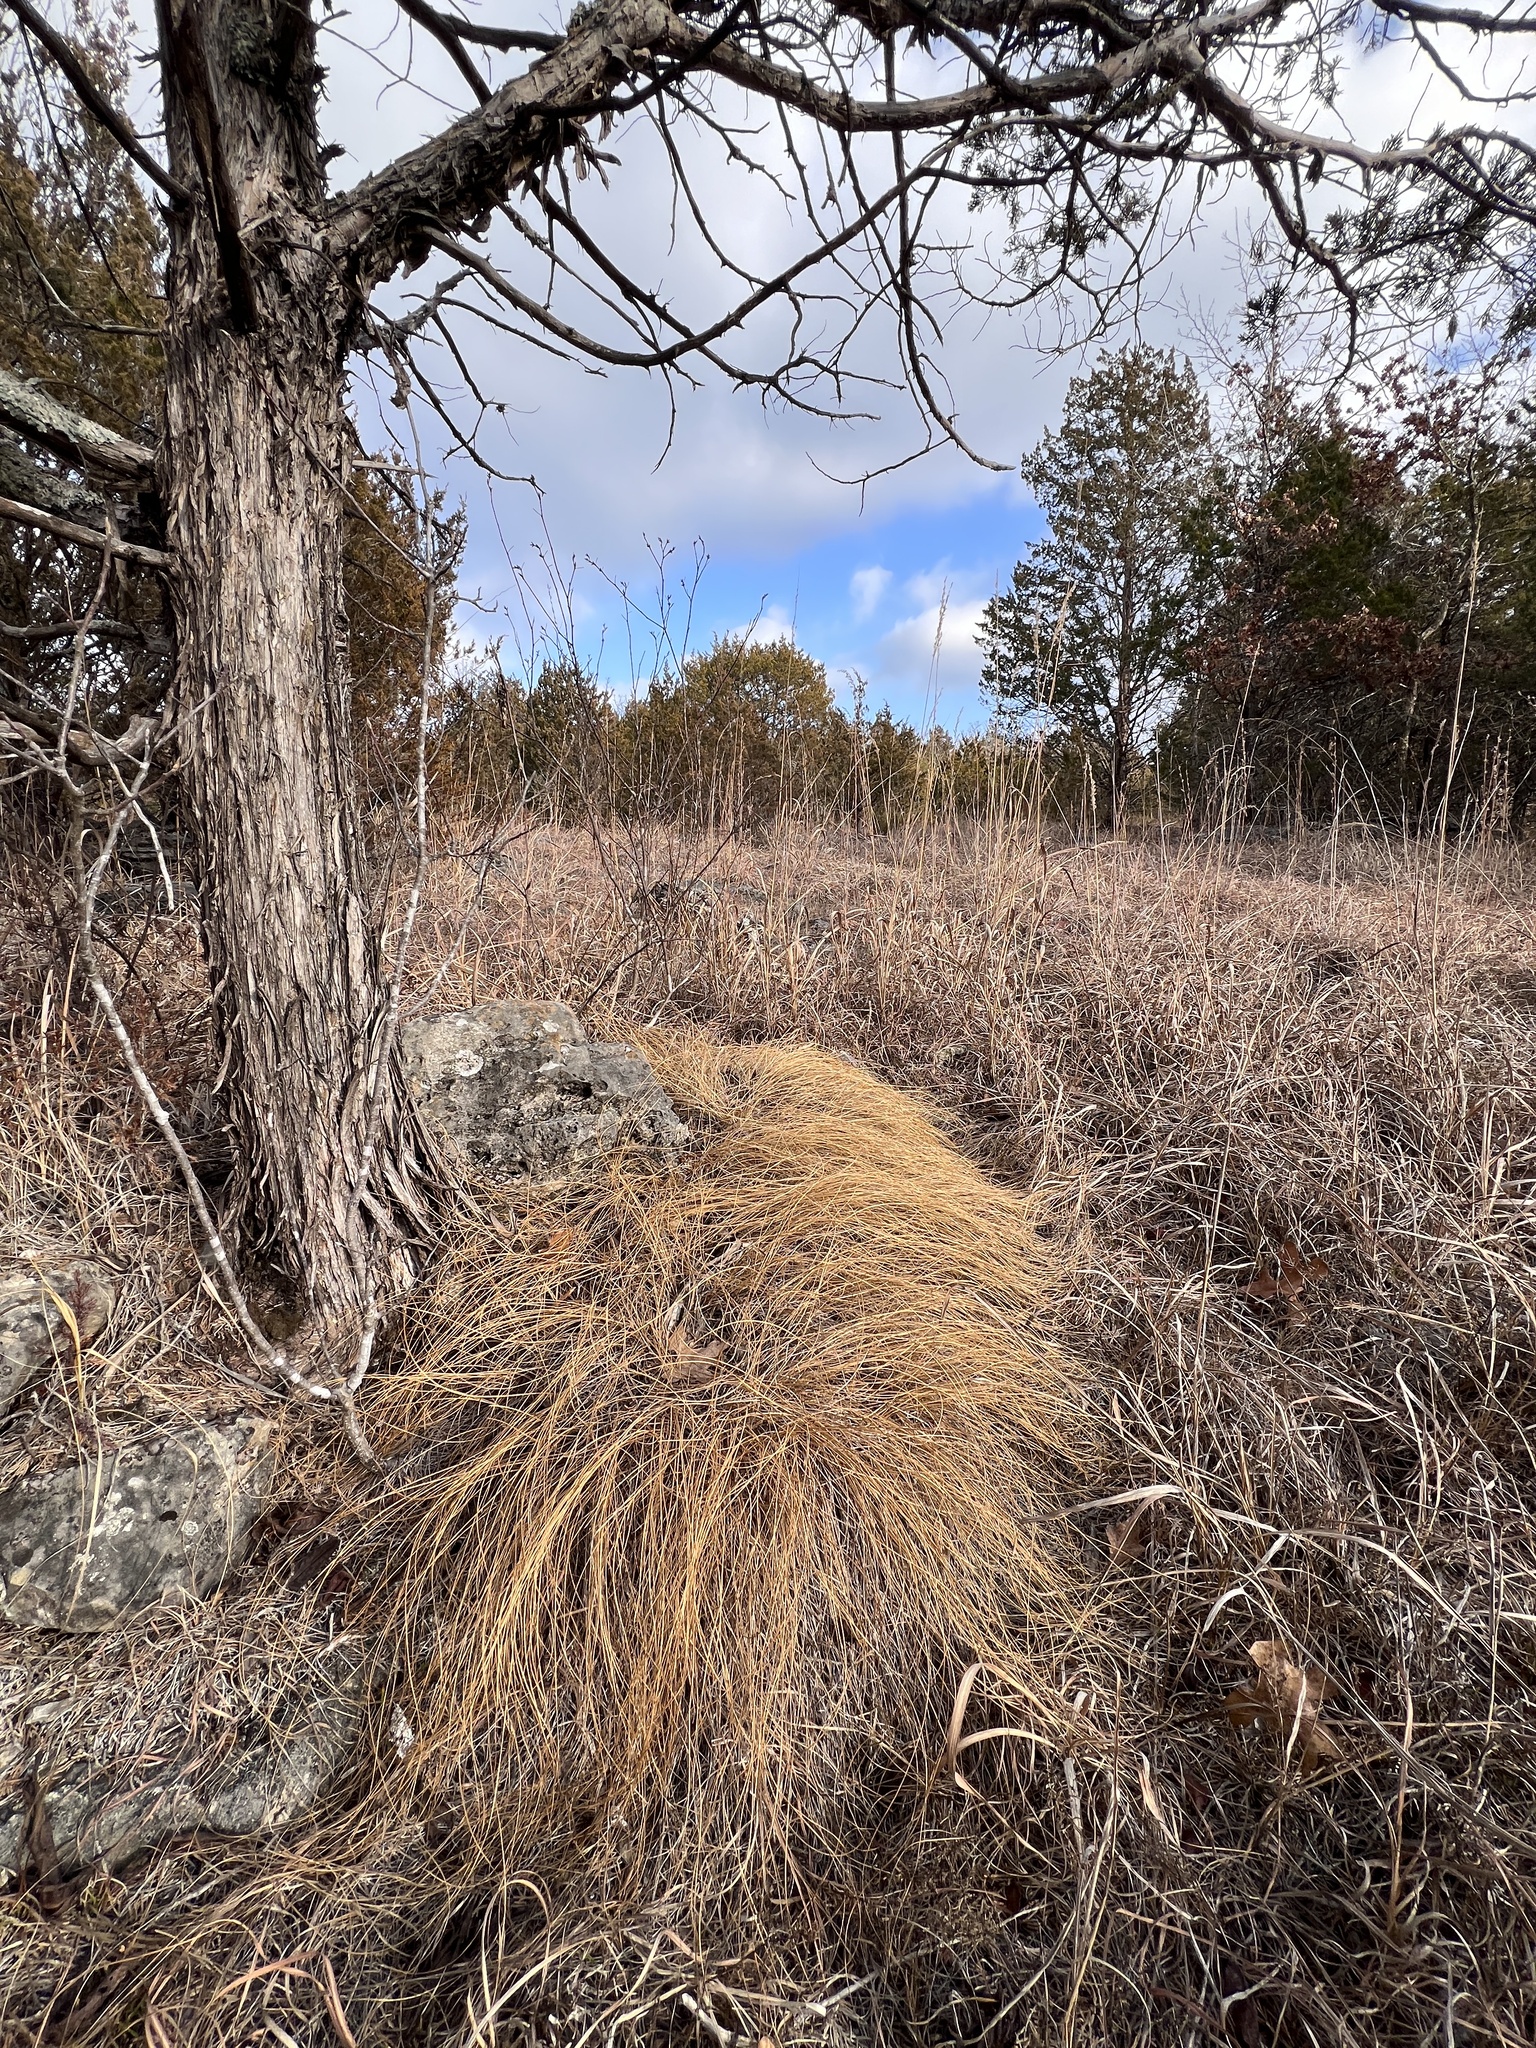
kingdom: Plantae
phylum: Tracheophyta
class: Liliopsida
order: Poales
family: Poaceae
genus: Sporobolus
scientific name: Sporobolus heterolepis
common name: Prairie dropseed
